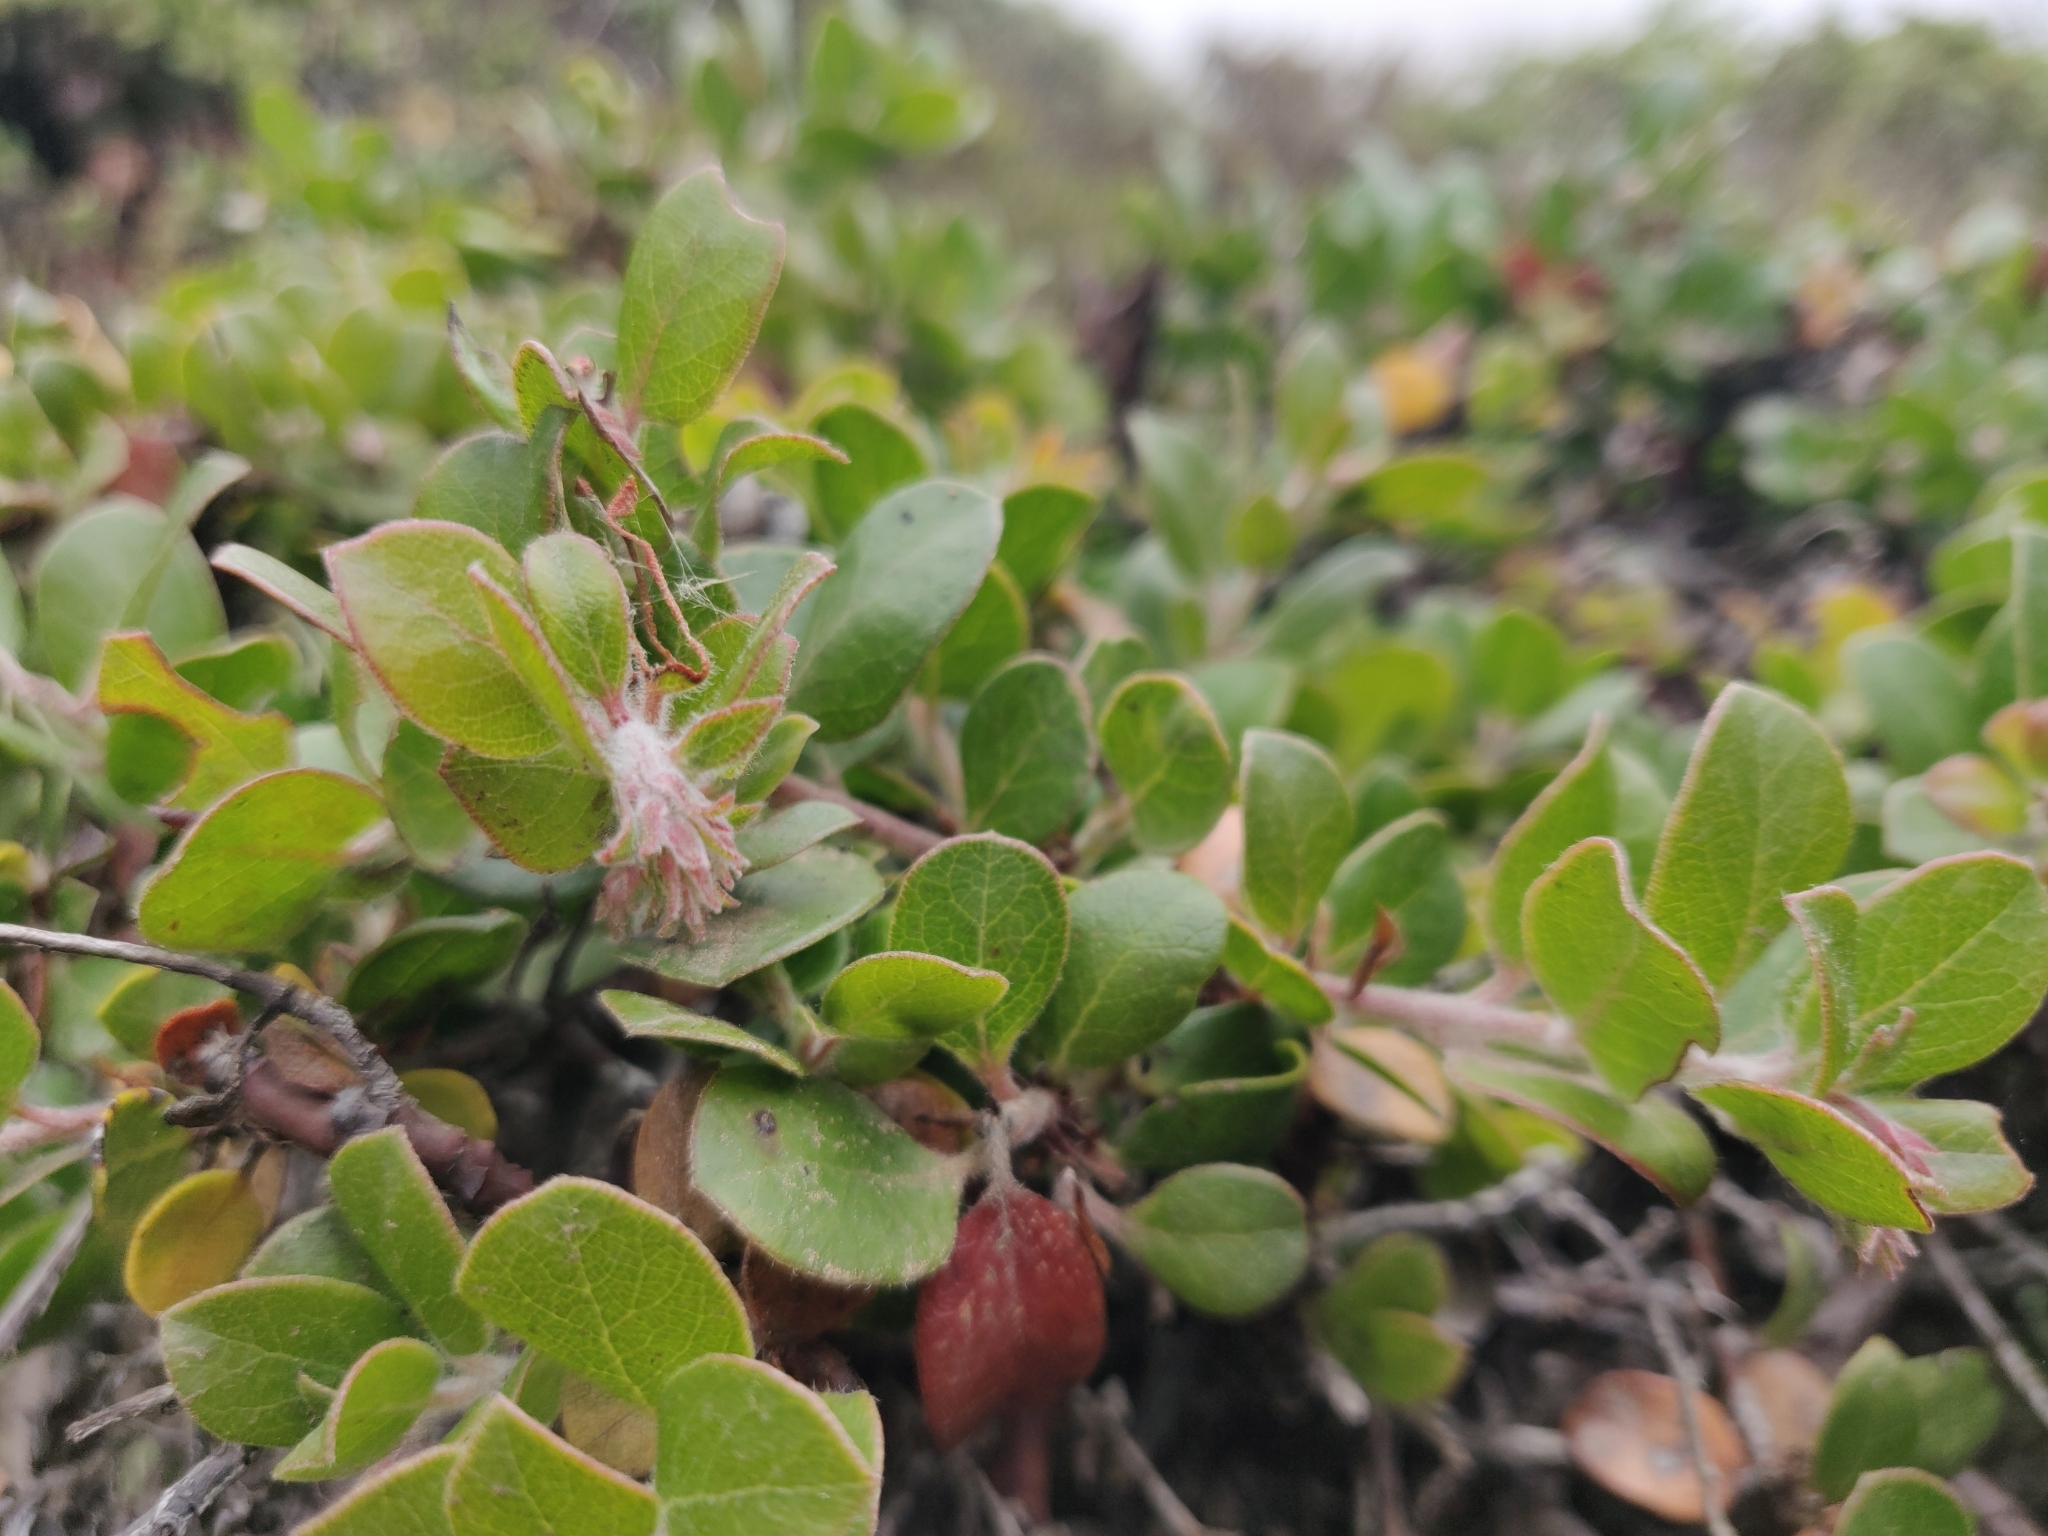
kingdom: Plantae
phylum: Tracheophyta
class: Magnoliopsida
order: Ericales
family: Ericaceae
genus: Arctostaphylos
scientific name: Arctostaphylos edmundsii
